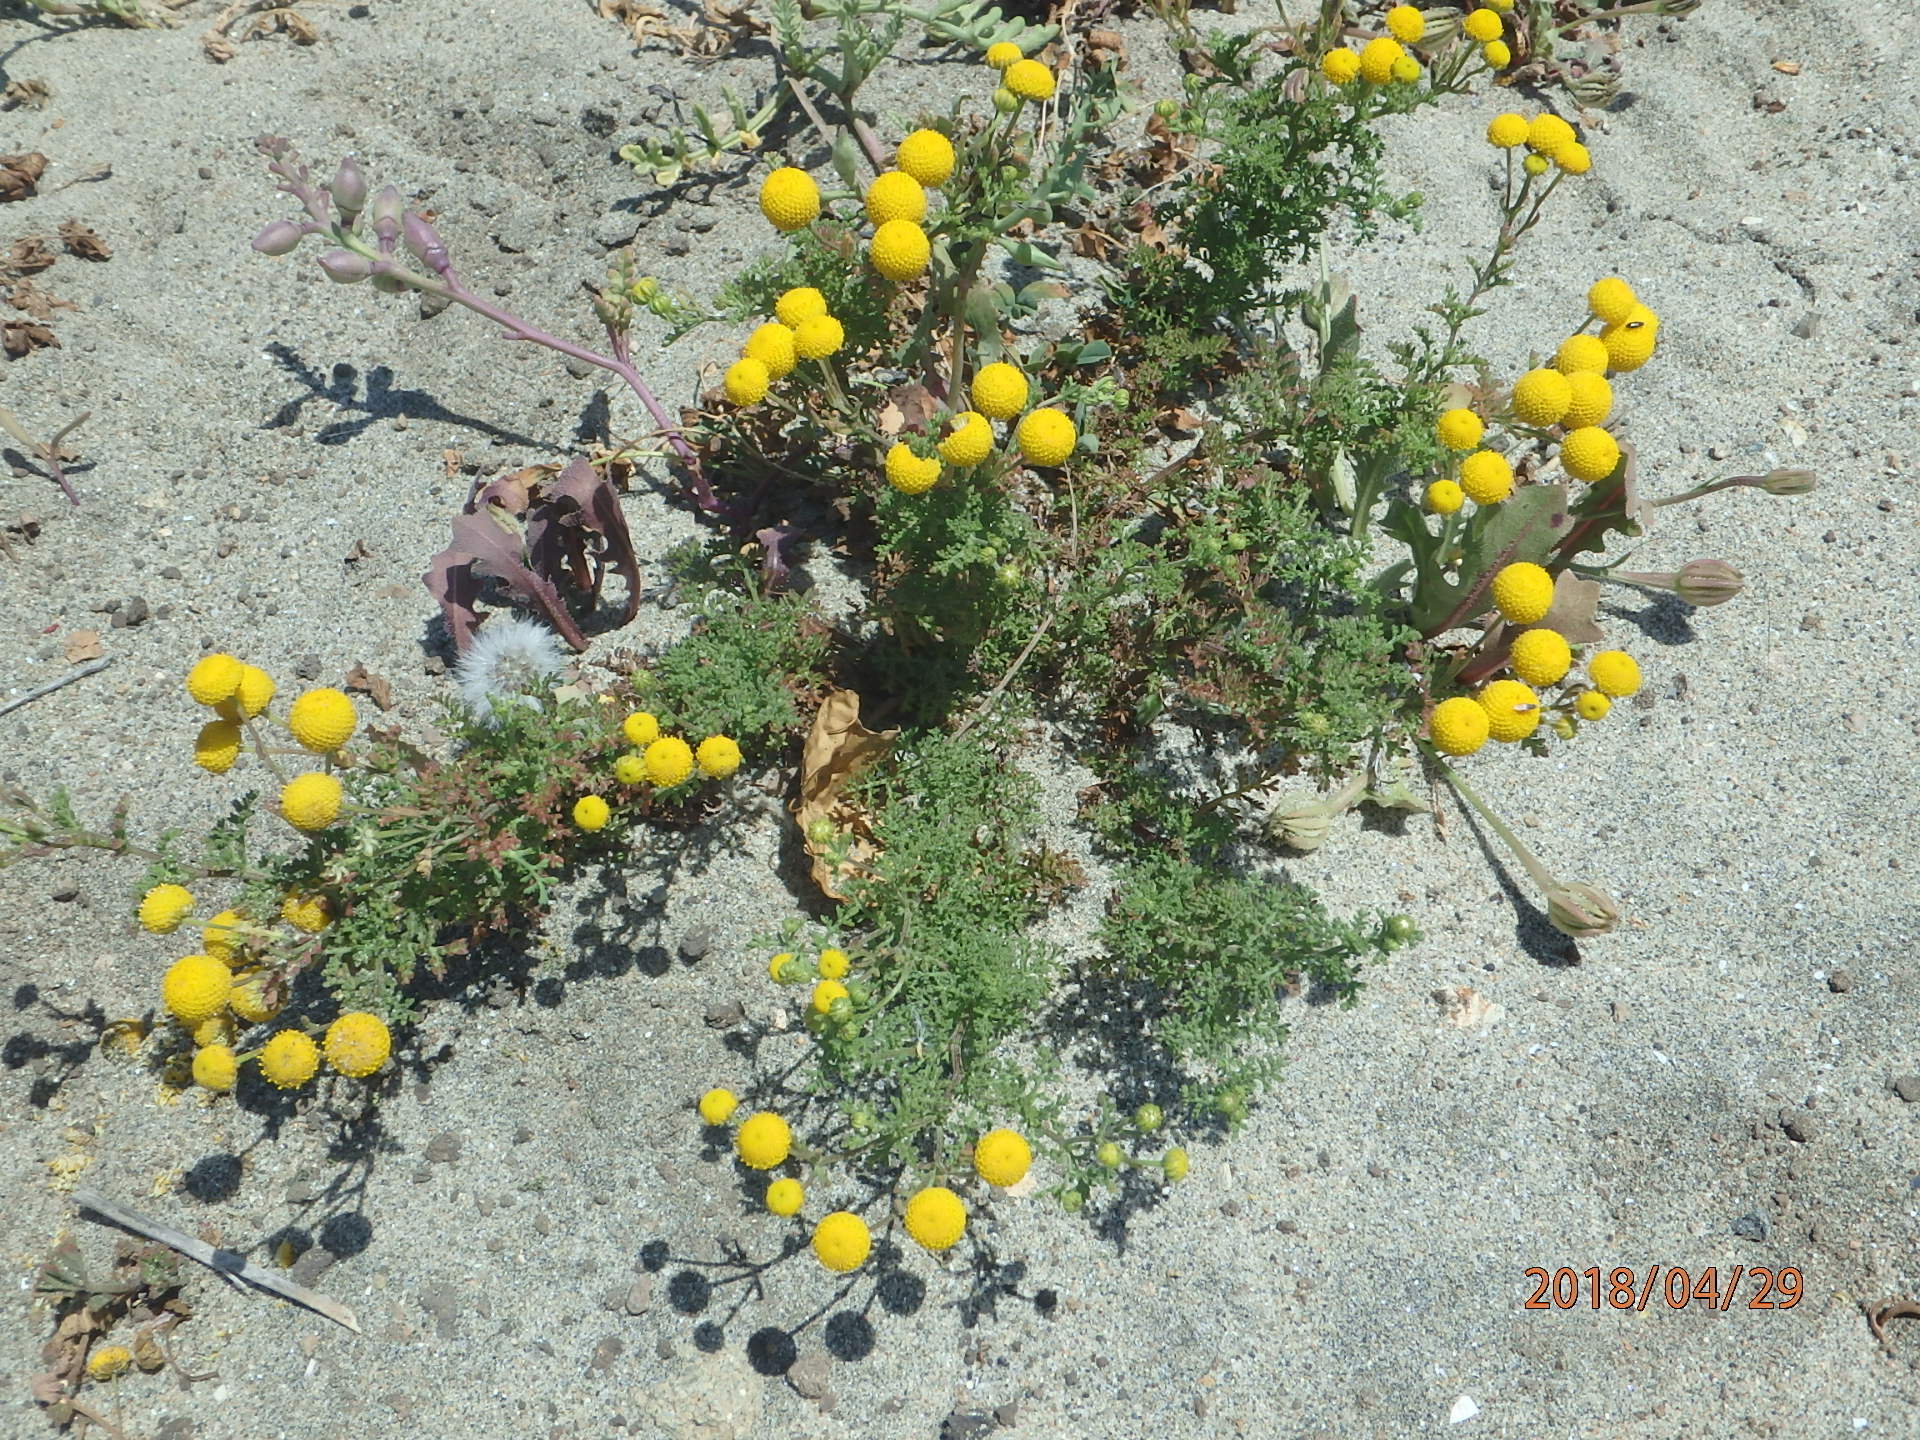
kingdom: Plantae
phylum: Tracheophyta
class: Magnoliopsida
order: Asterales
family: Asteraceae
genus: Oncosiphon
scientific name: Oncosiphon pilulifer
